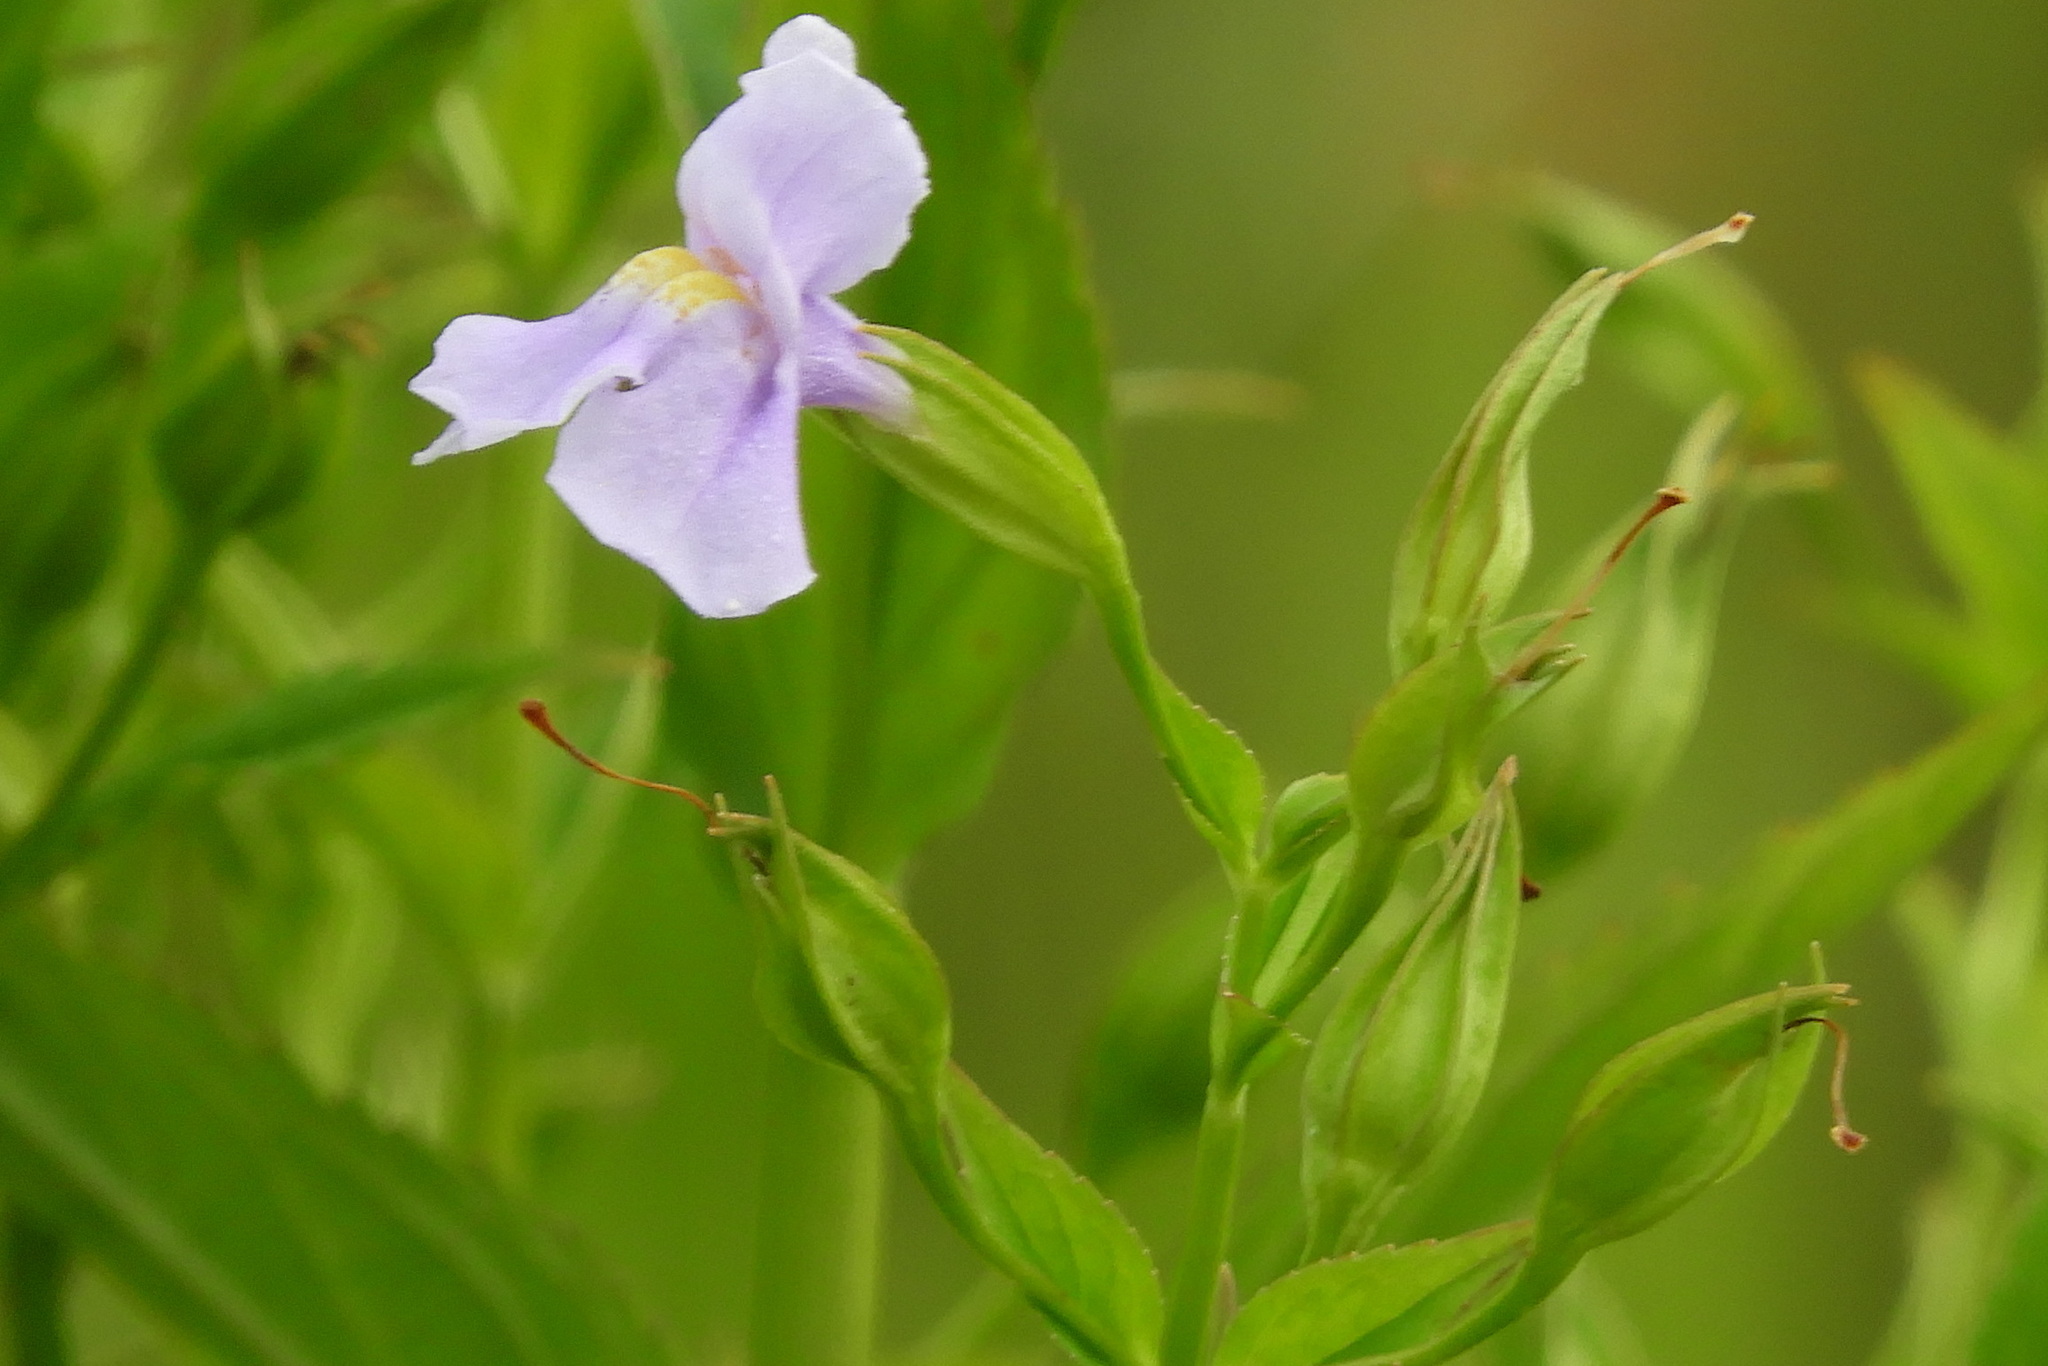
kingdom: Plantae
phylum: Tracheophyta
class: Magnoliopsida
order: Lamiales
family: Phrymaceae
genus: Mimulus
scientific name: Mimulus ringens
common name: Allegheny monkeyflower
